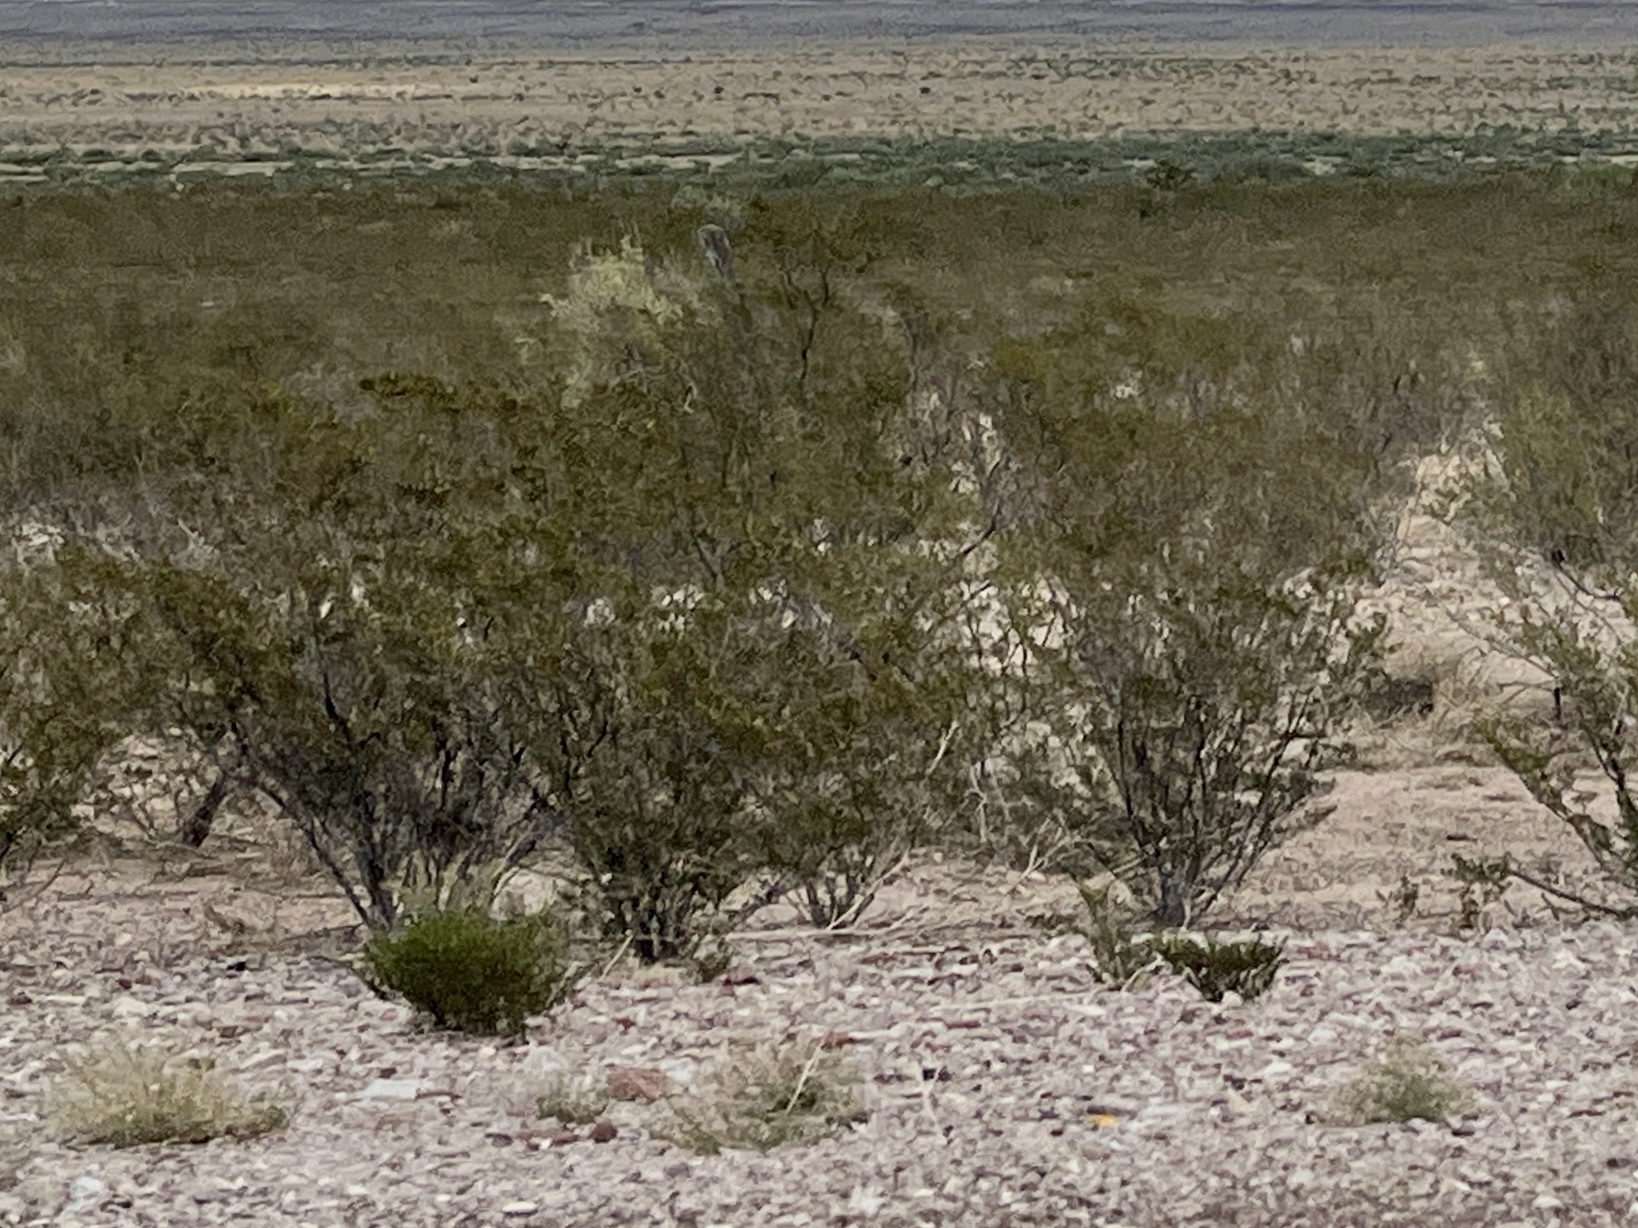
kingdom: Plantae
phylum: Tracheophyta
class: Magnoliopsida
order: Zygophyllales
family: Zygophyllaceae
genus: Larrea
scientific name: Larrea tridentata
